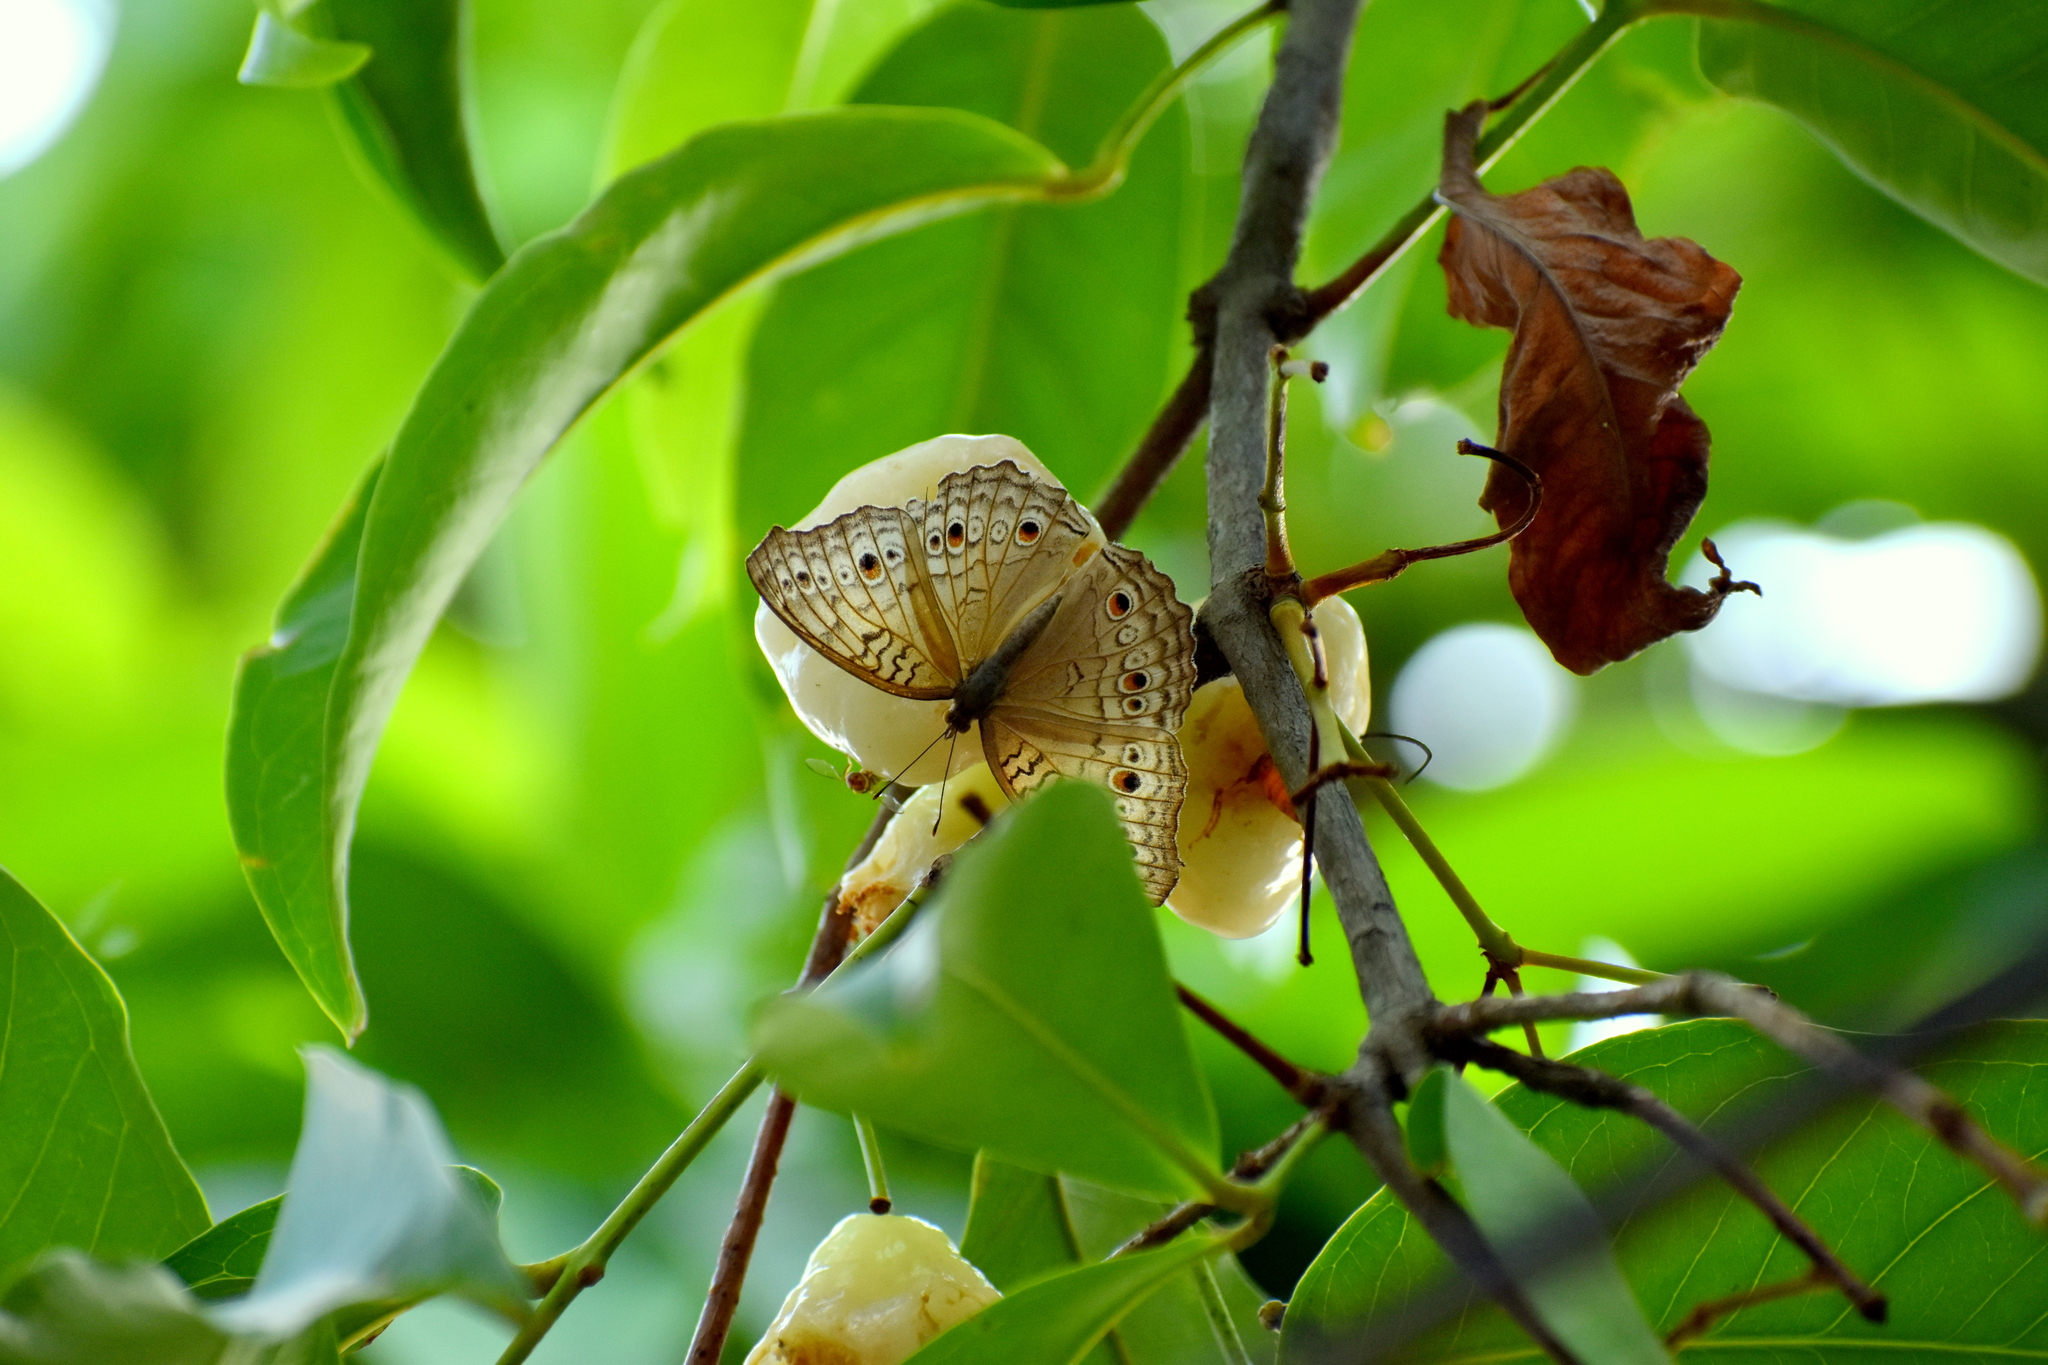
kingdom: Animalia
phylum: Arthropoda
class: Insecta
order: Lepidoptera
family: Nymphalidae
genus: Junonia
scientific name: Junonia atlites
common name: Grey pansy
